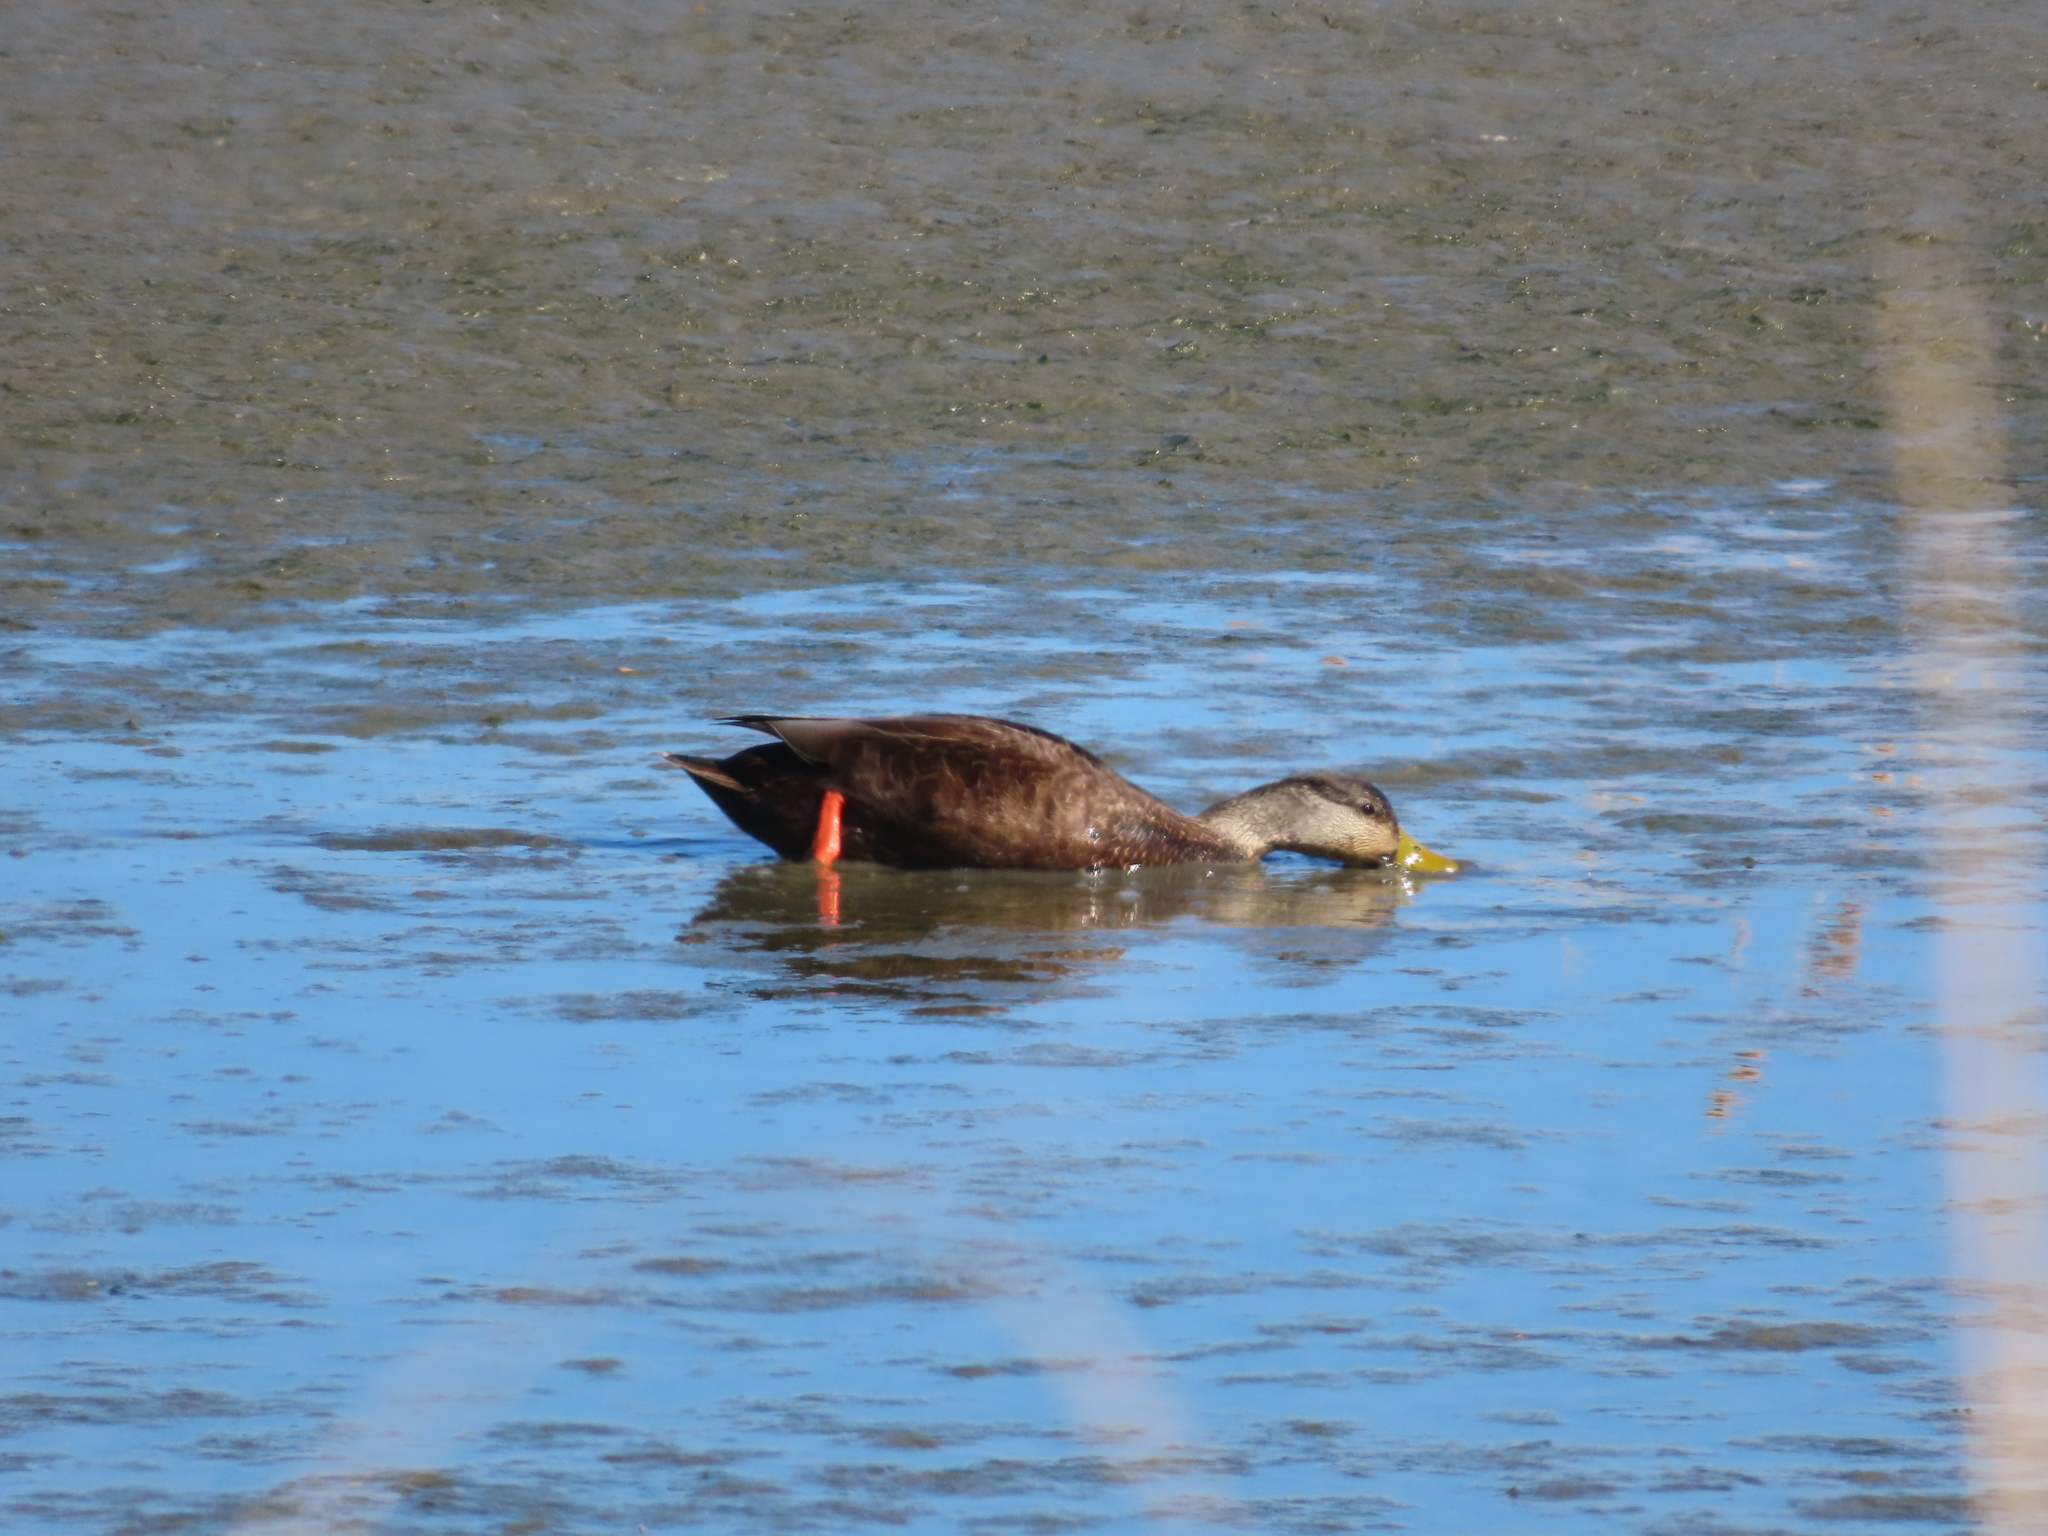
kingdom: Animalia
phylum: Chordata
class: Aves
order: Anseriformes
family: Anatidae
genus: Anas
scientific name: Anas rubripes
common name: American black duck
